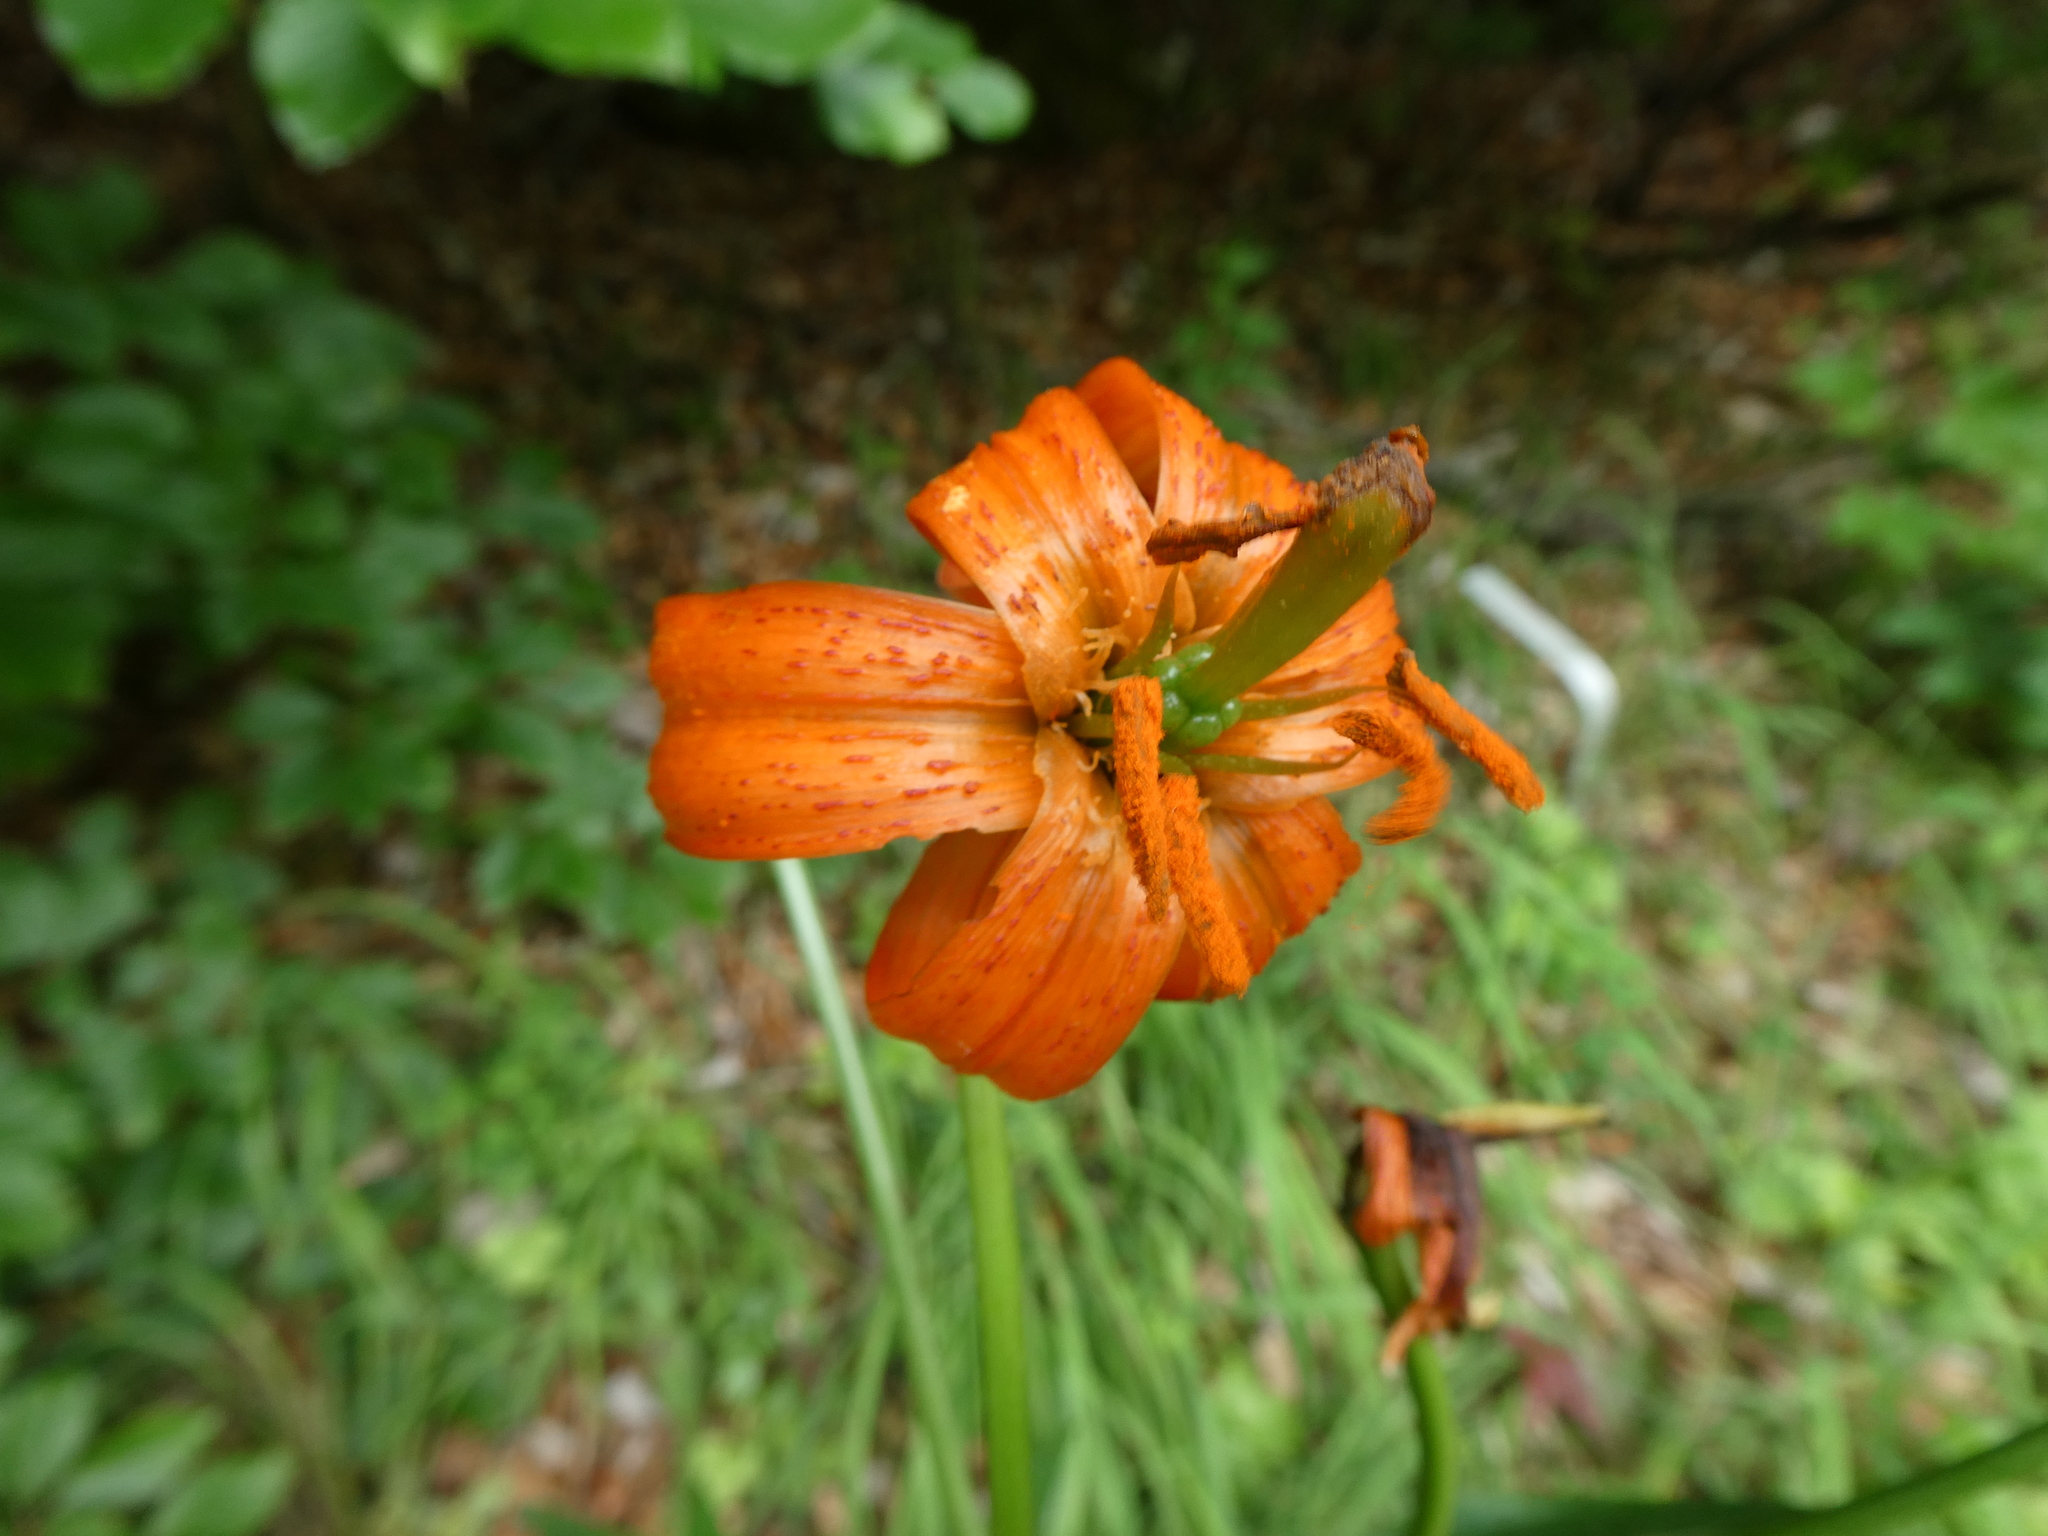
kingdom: Plantae
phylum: Tracheophyta
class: Liliopsida
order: Liliales
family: Liliaceae
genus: Lilium
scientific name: Lilium carniolicum
